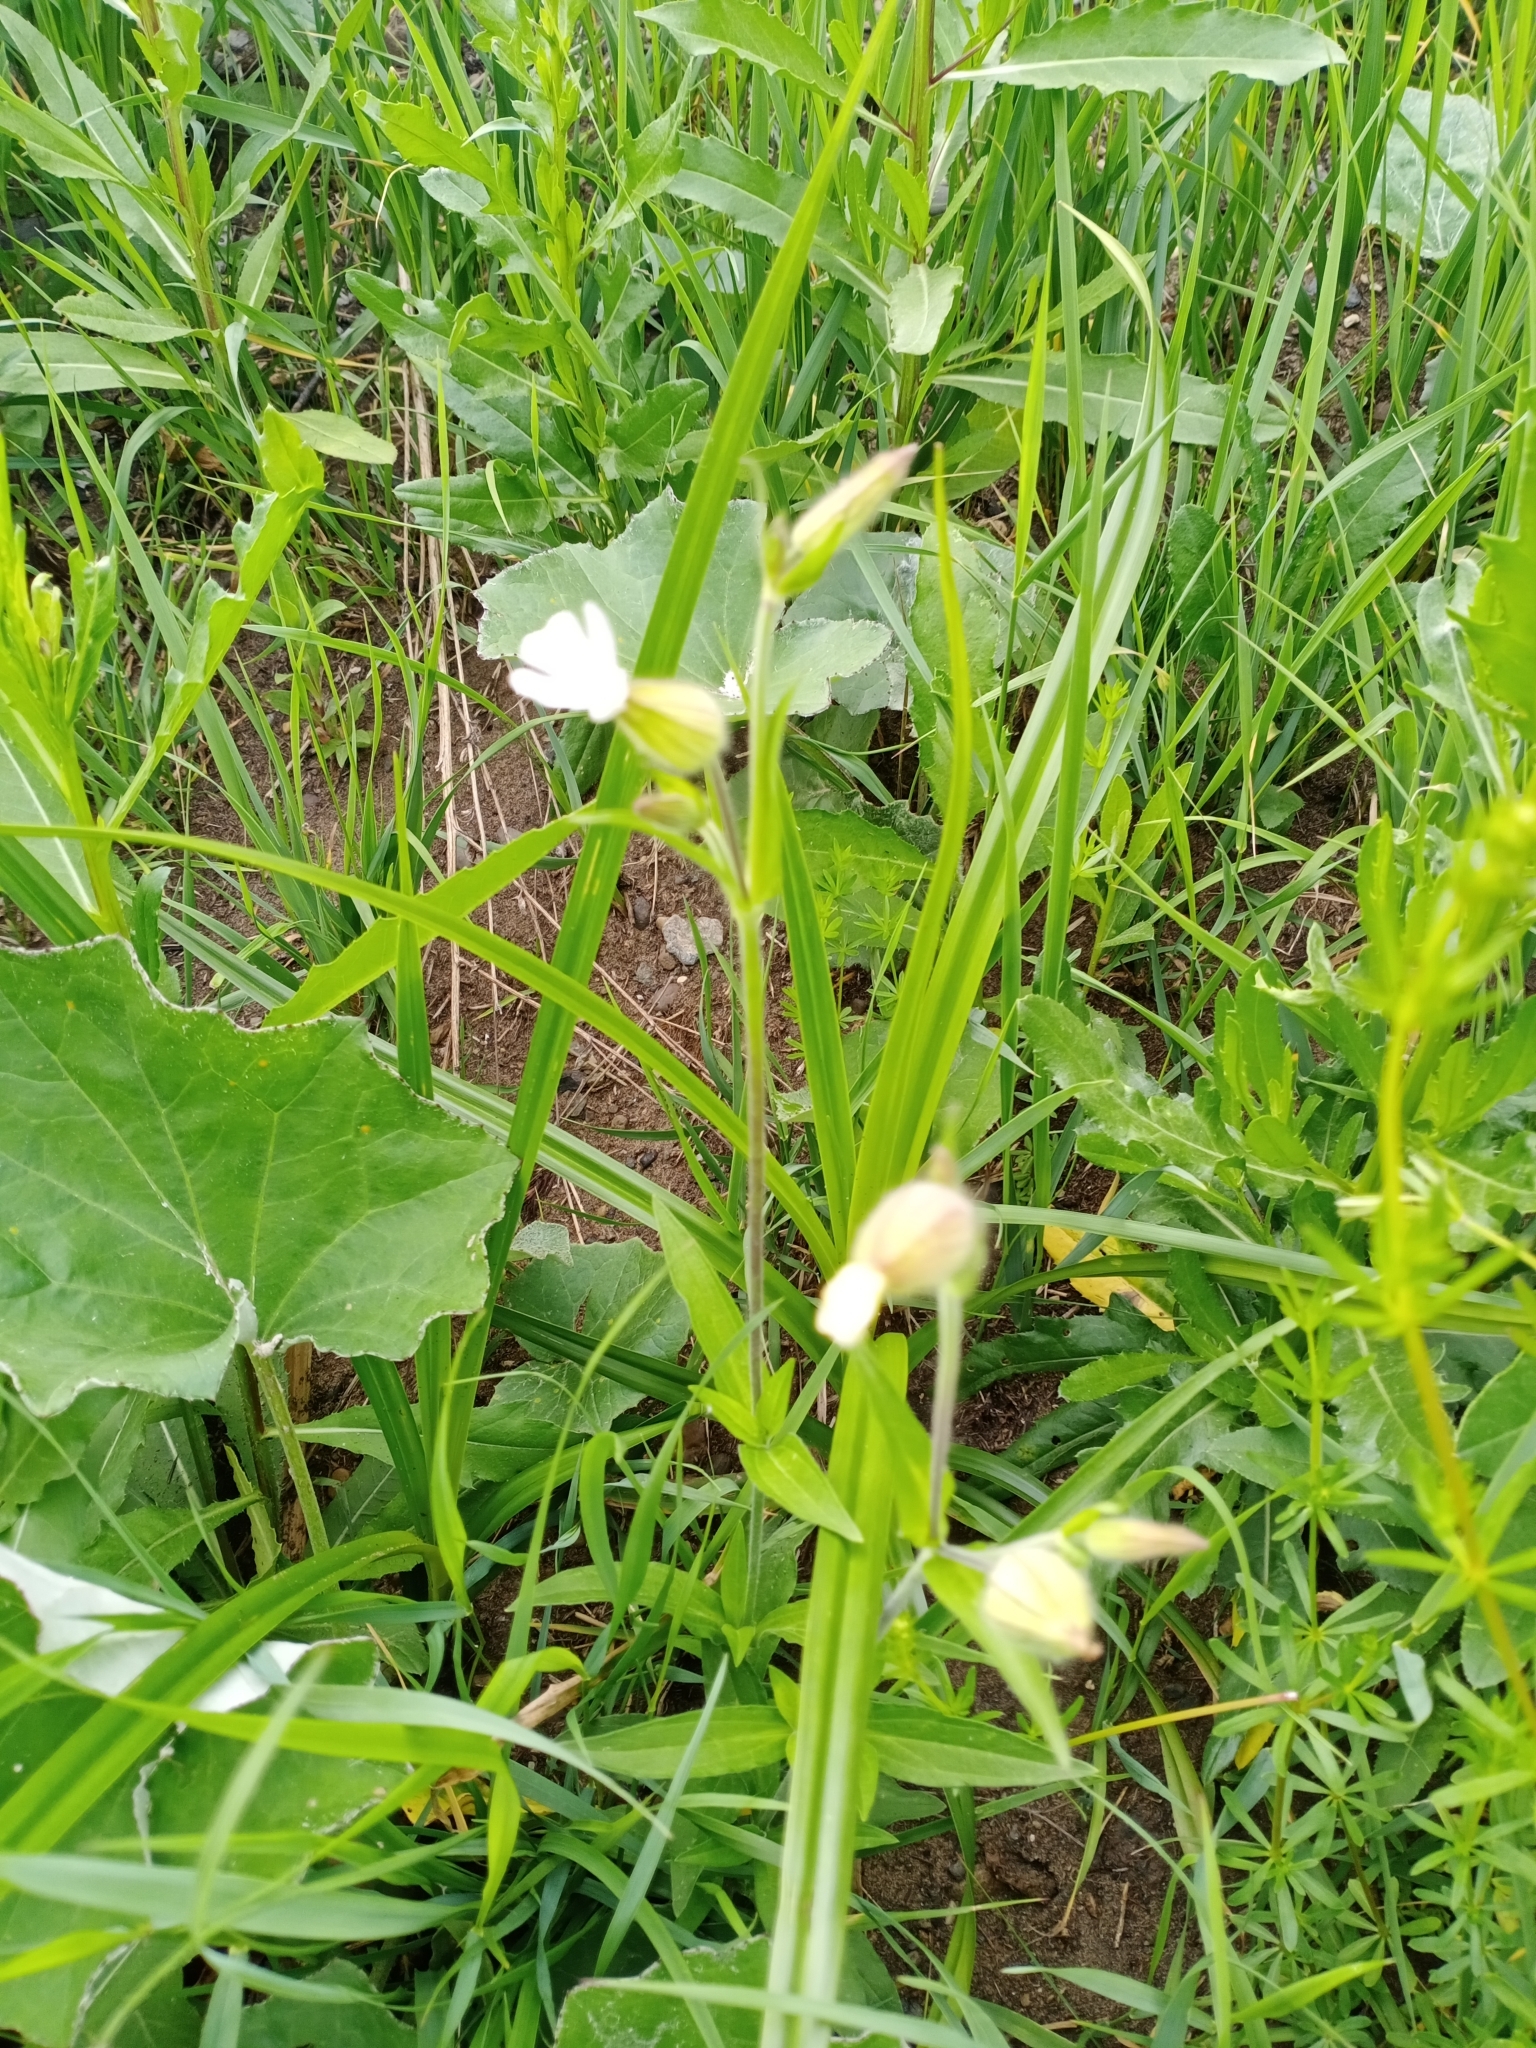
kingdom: Plantae
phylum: Tracheophyta
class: Magnoliopsida
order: Caryophyllales
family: Caryophyllaceae
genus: Silene
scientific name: Silene latifolia
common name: White campion
